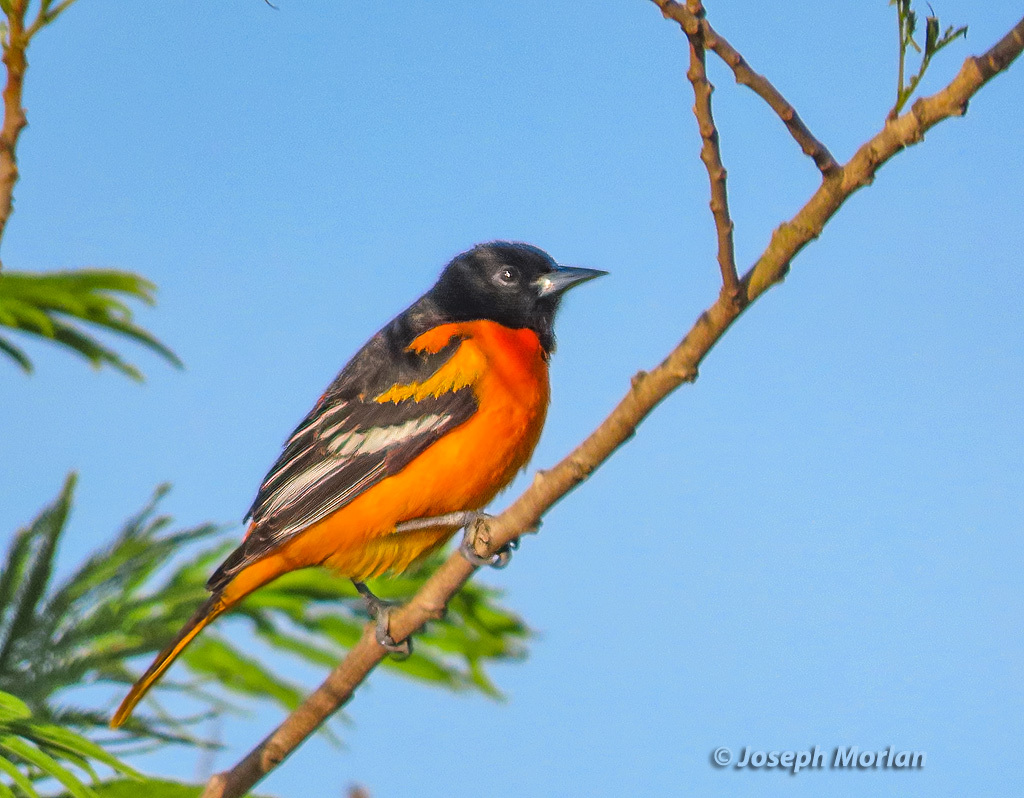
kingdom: Animalia
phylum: Chordata
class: Aves
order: Passeriformes
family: Icteridae
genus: Icterus
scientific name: Icterus galbula
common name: Baltimore oriole
